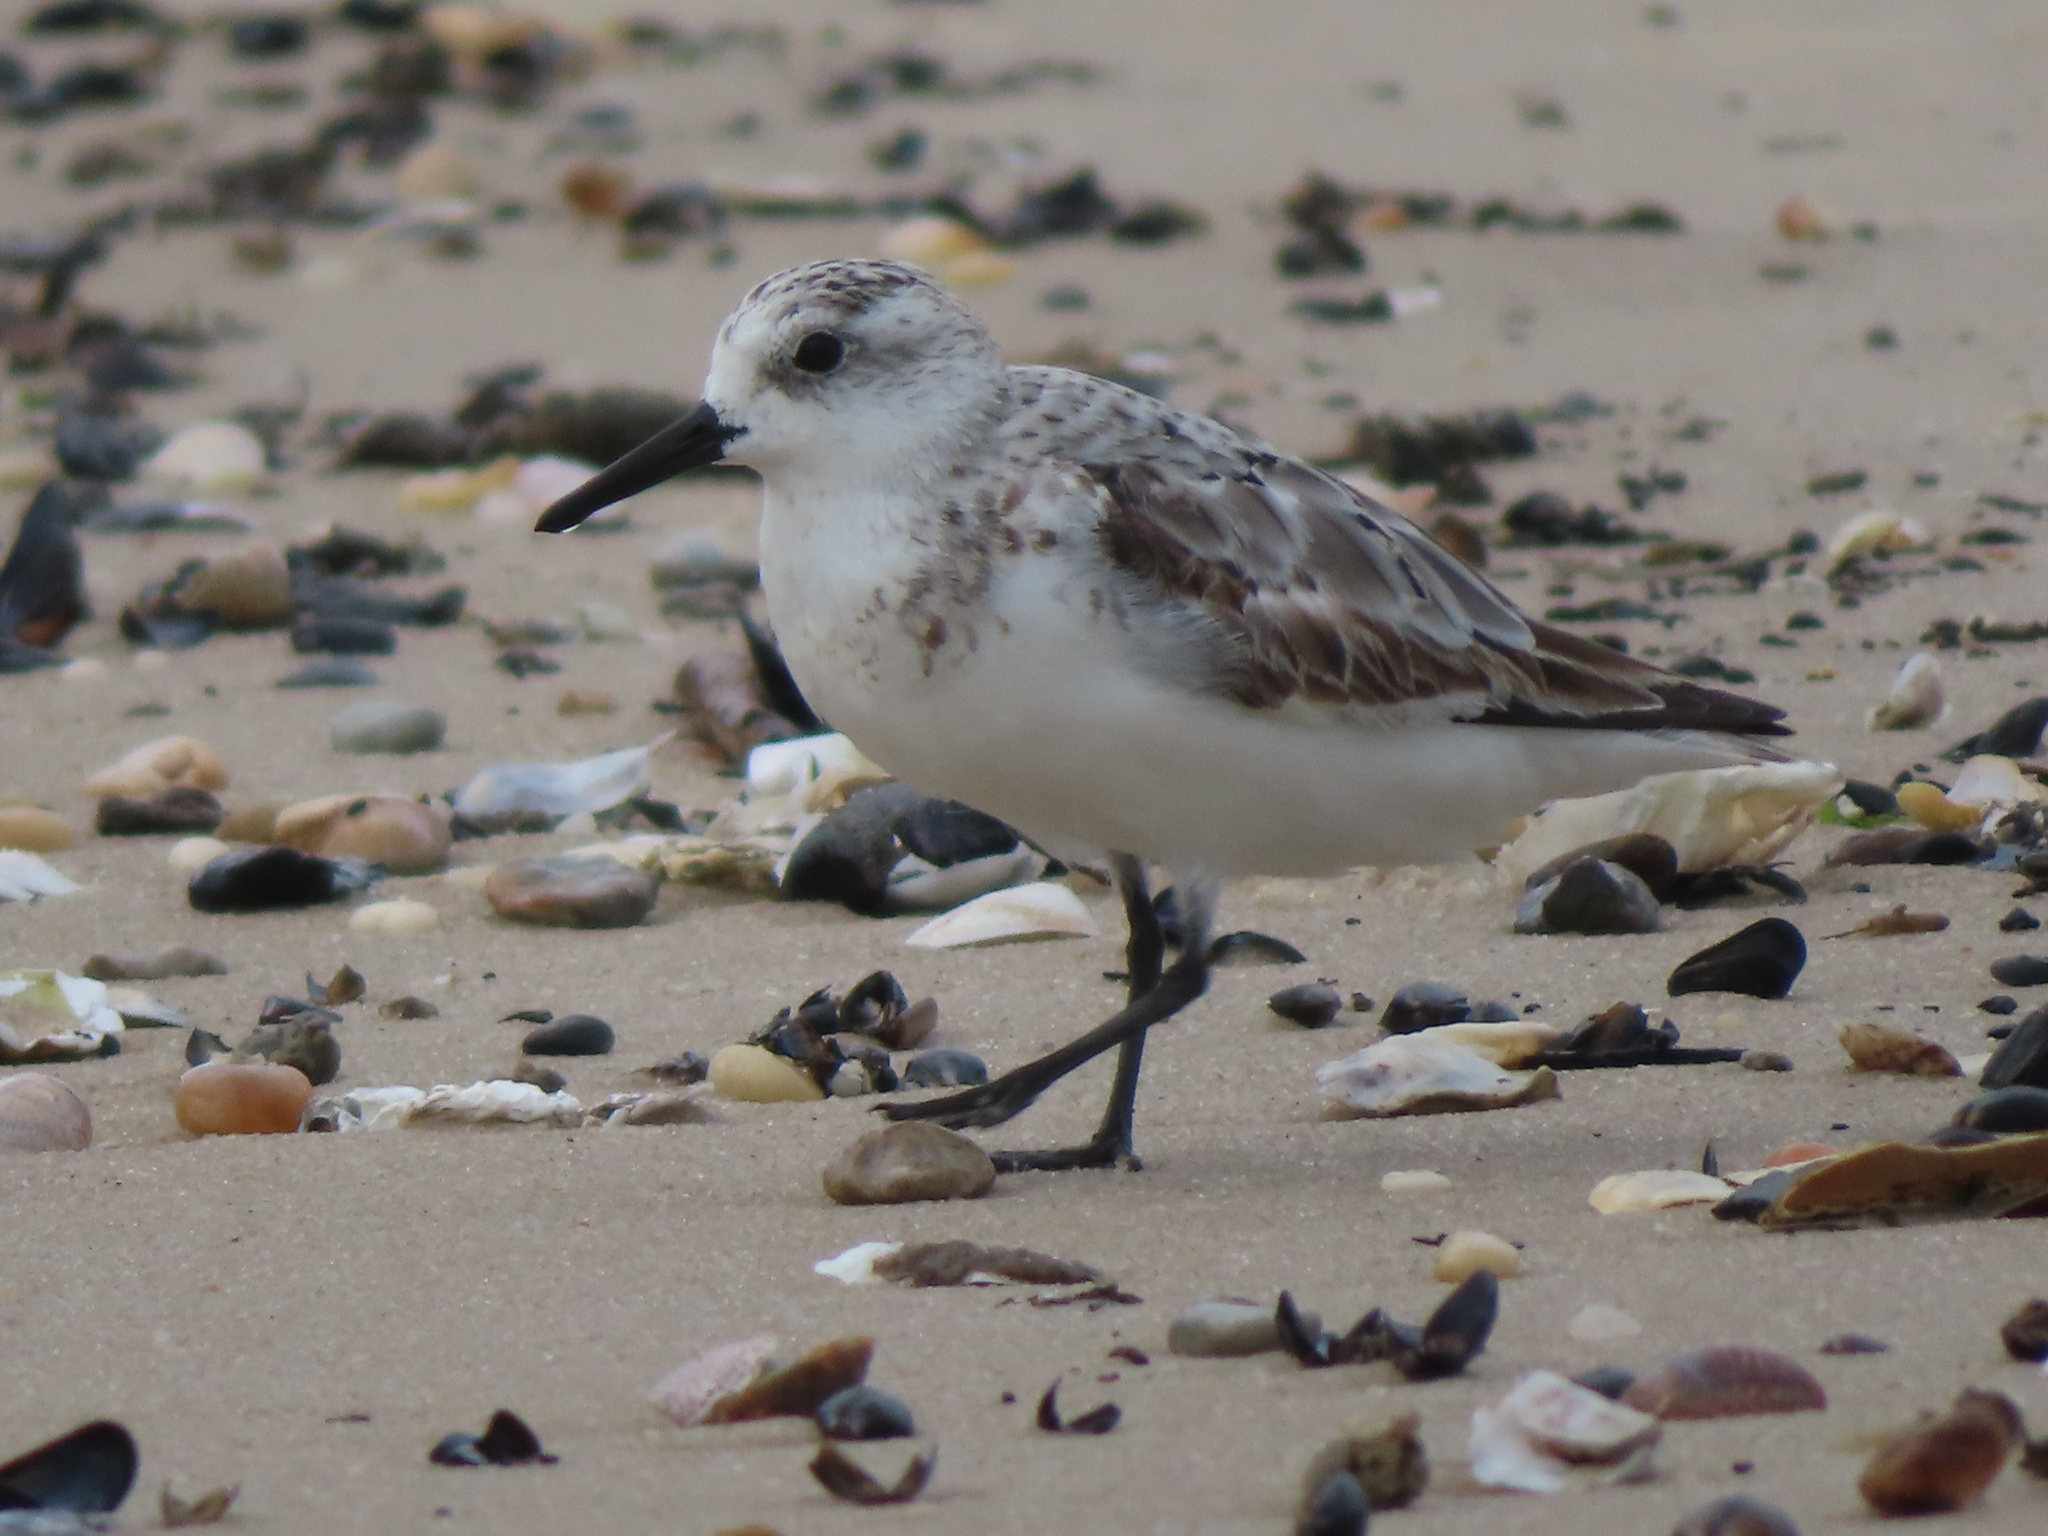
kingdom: Animalia
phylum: Chordata
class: Aves
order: Charadriiformes
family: Scolopacidae
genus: Calidris
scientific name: Calidris alba
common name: Sanderling
